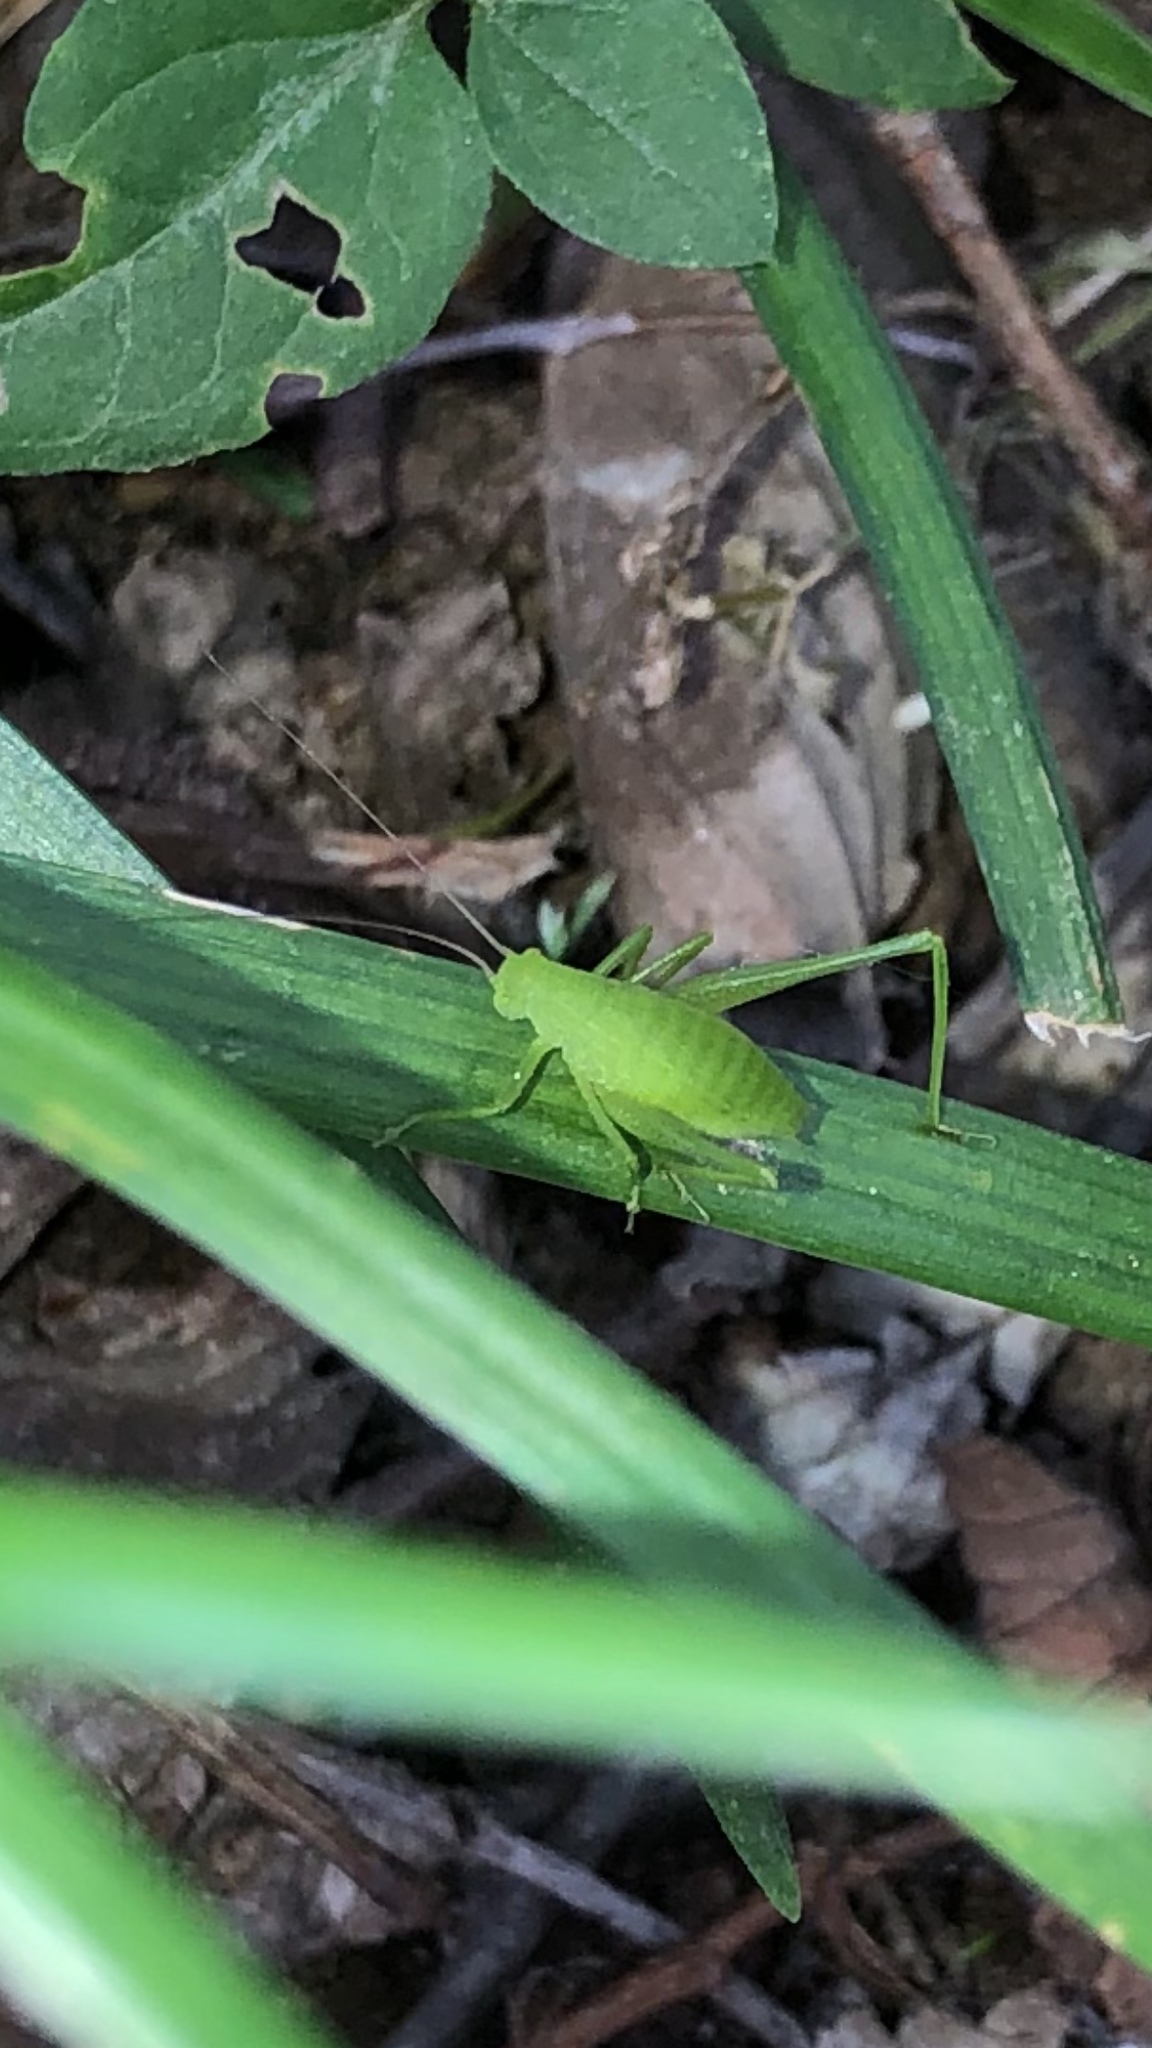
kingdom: Animalia
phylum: Arthropoda
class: Insecta
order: Orthoptera
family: Tettigoniidae
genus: Amblycorypha
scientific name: Amblycorypha oblongifolia
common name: Oblong-winged katydid
